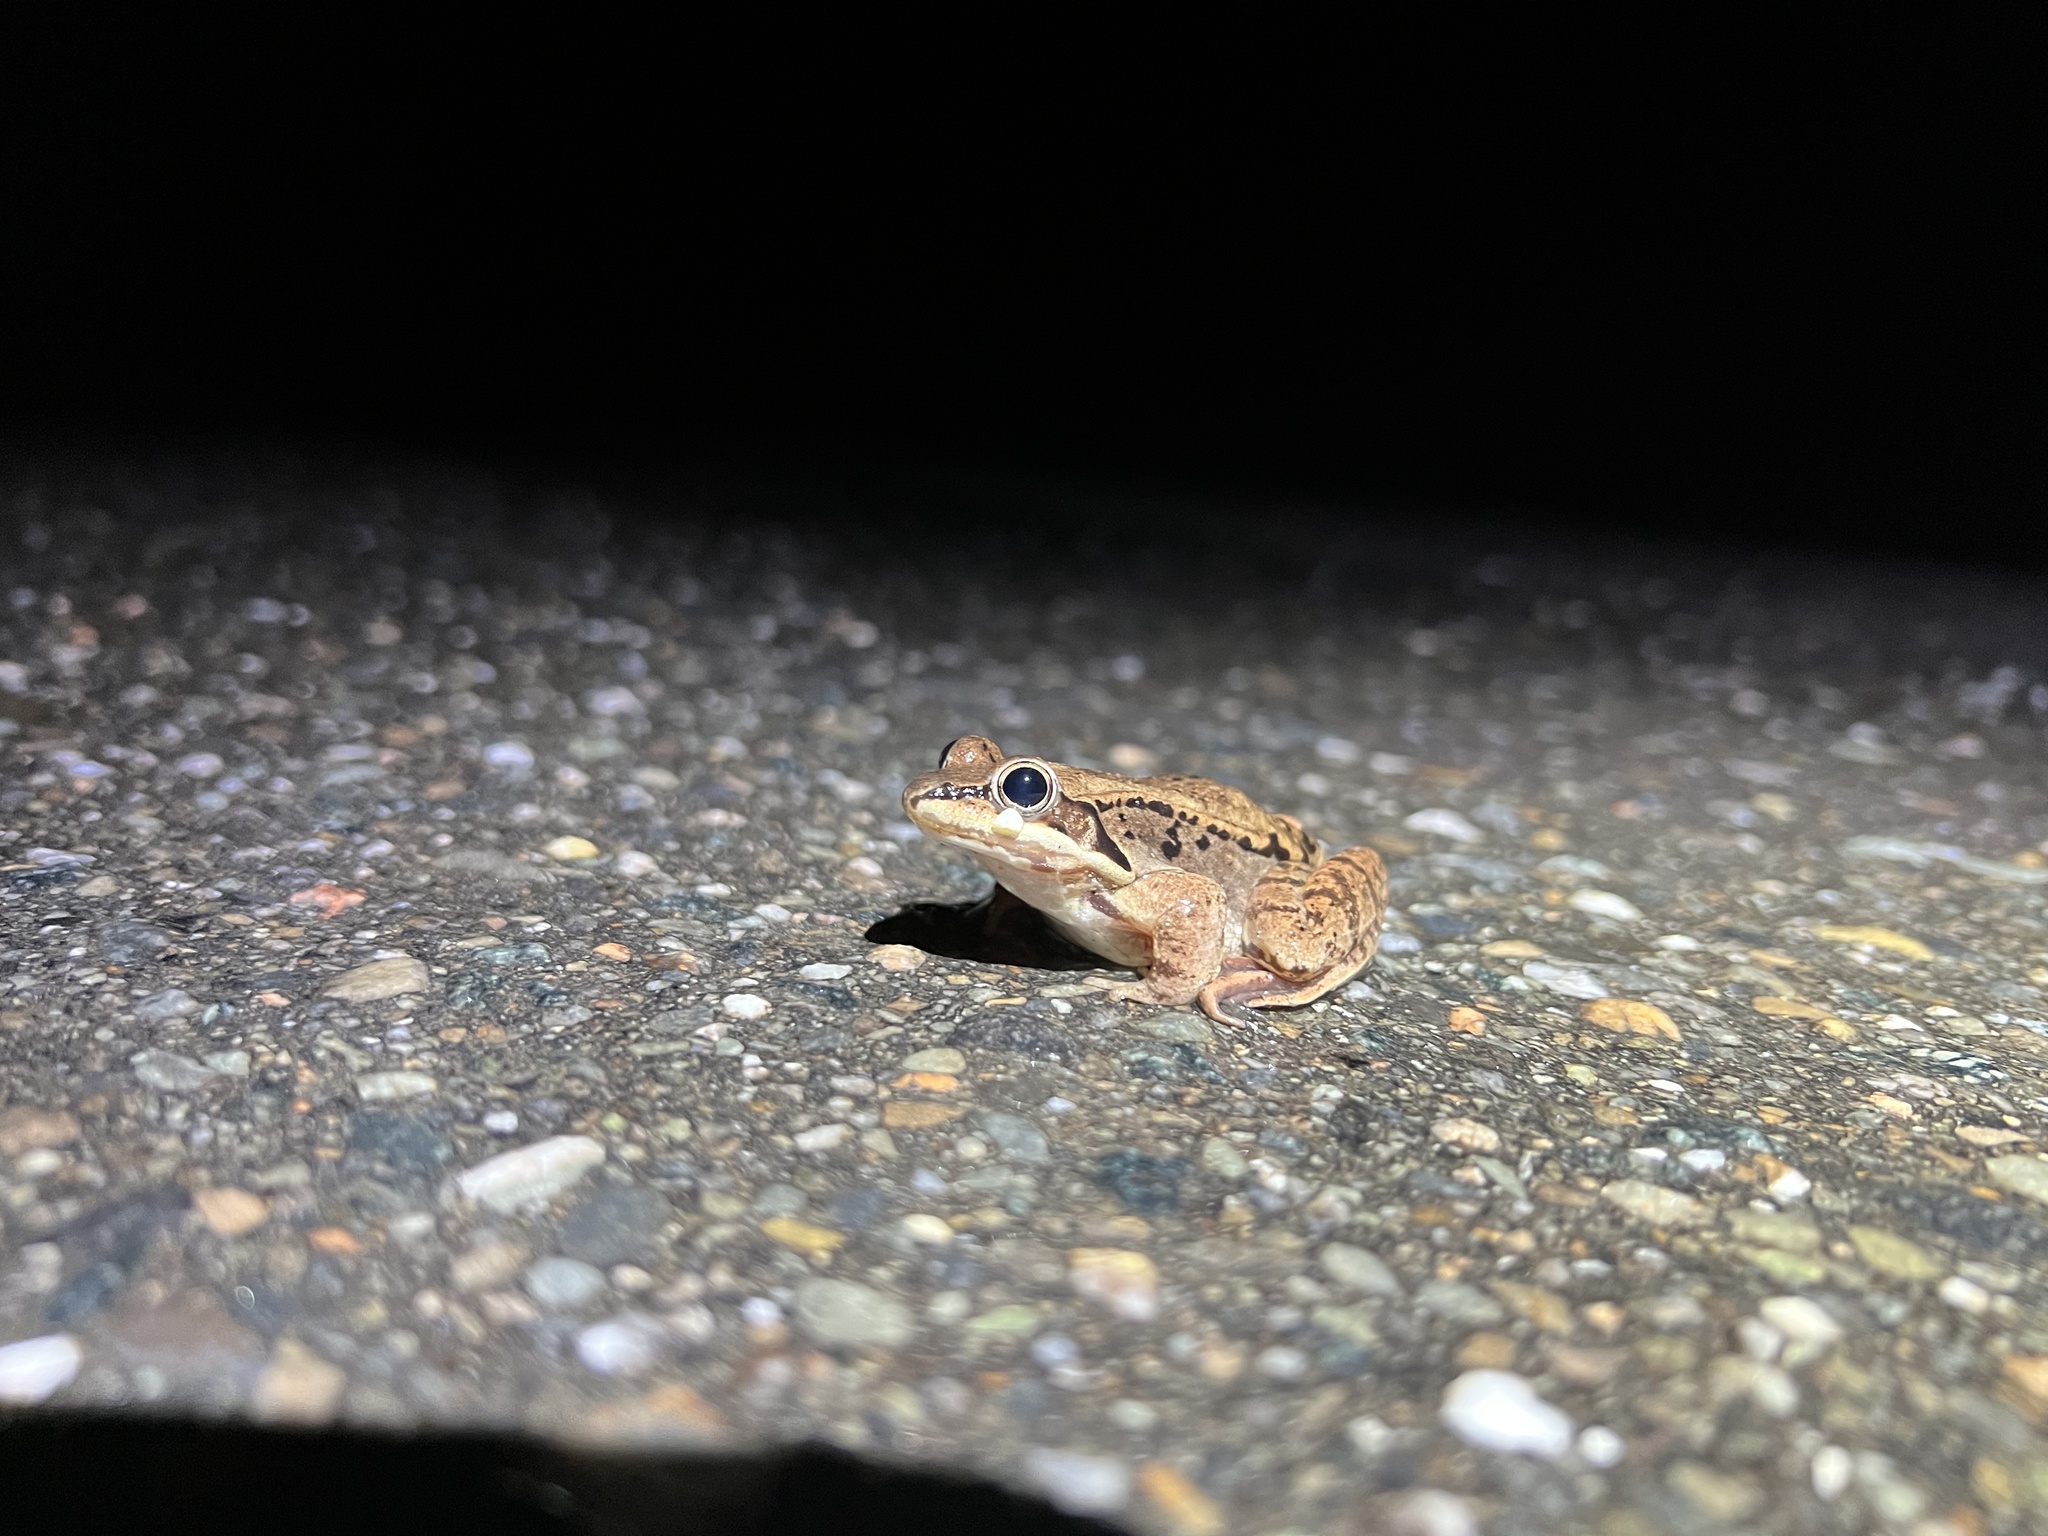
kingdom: Animalia
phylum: Chordata
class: Amphibia
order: Anura
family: Ranidae
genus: Lithobates
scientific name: Lithobates sylvaticus
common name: Wood frog
